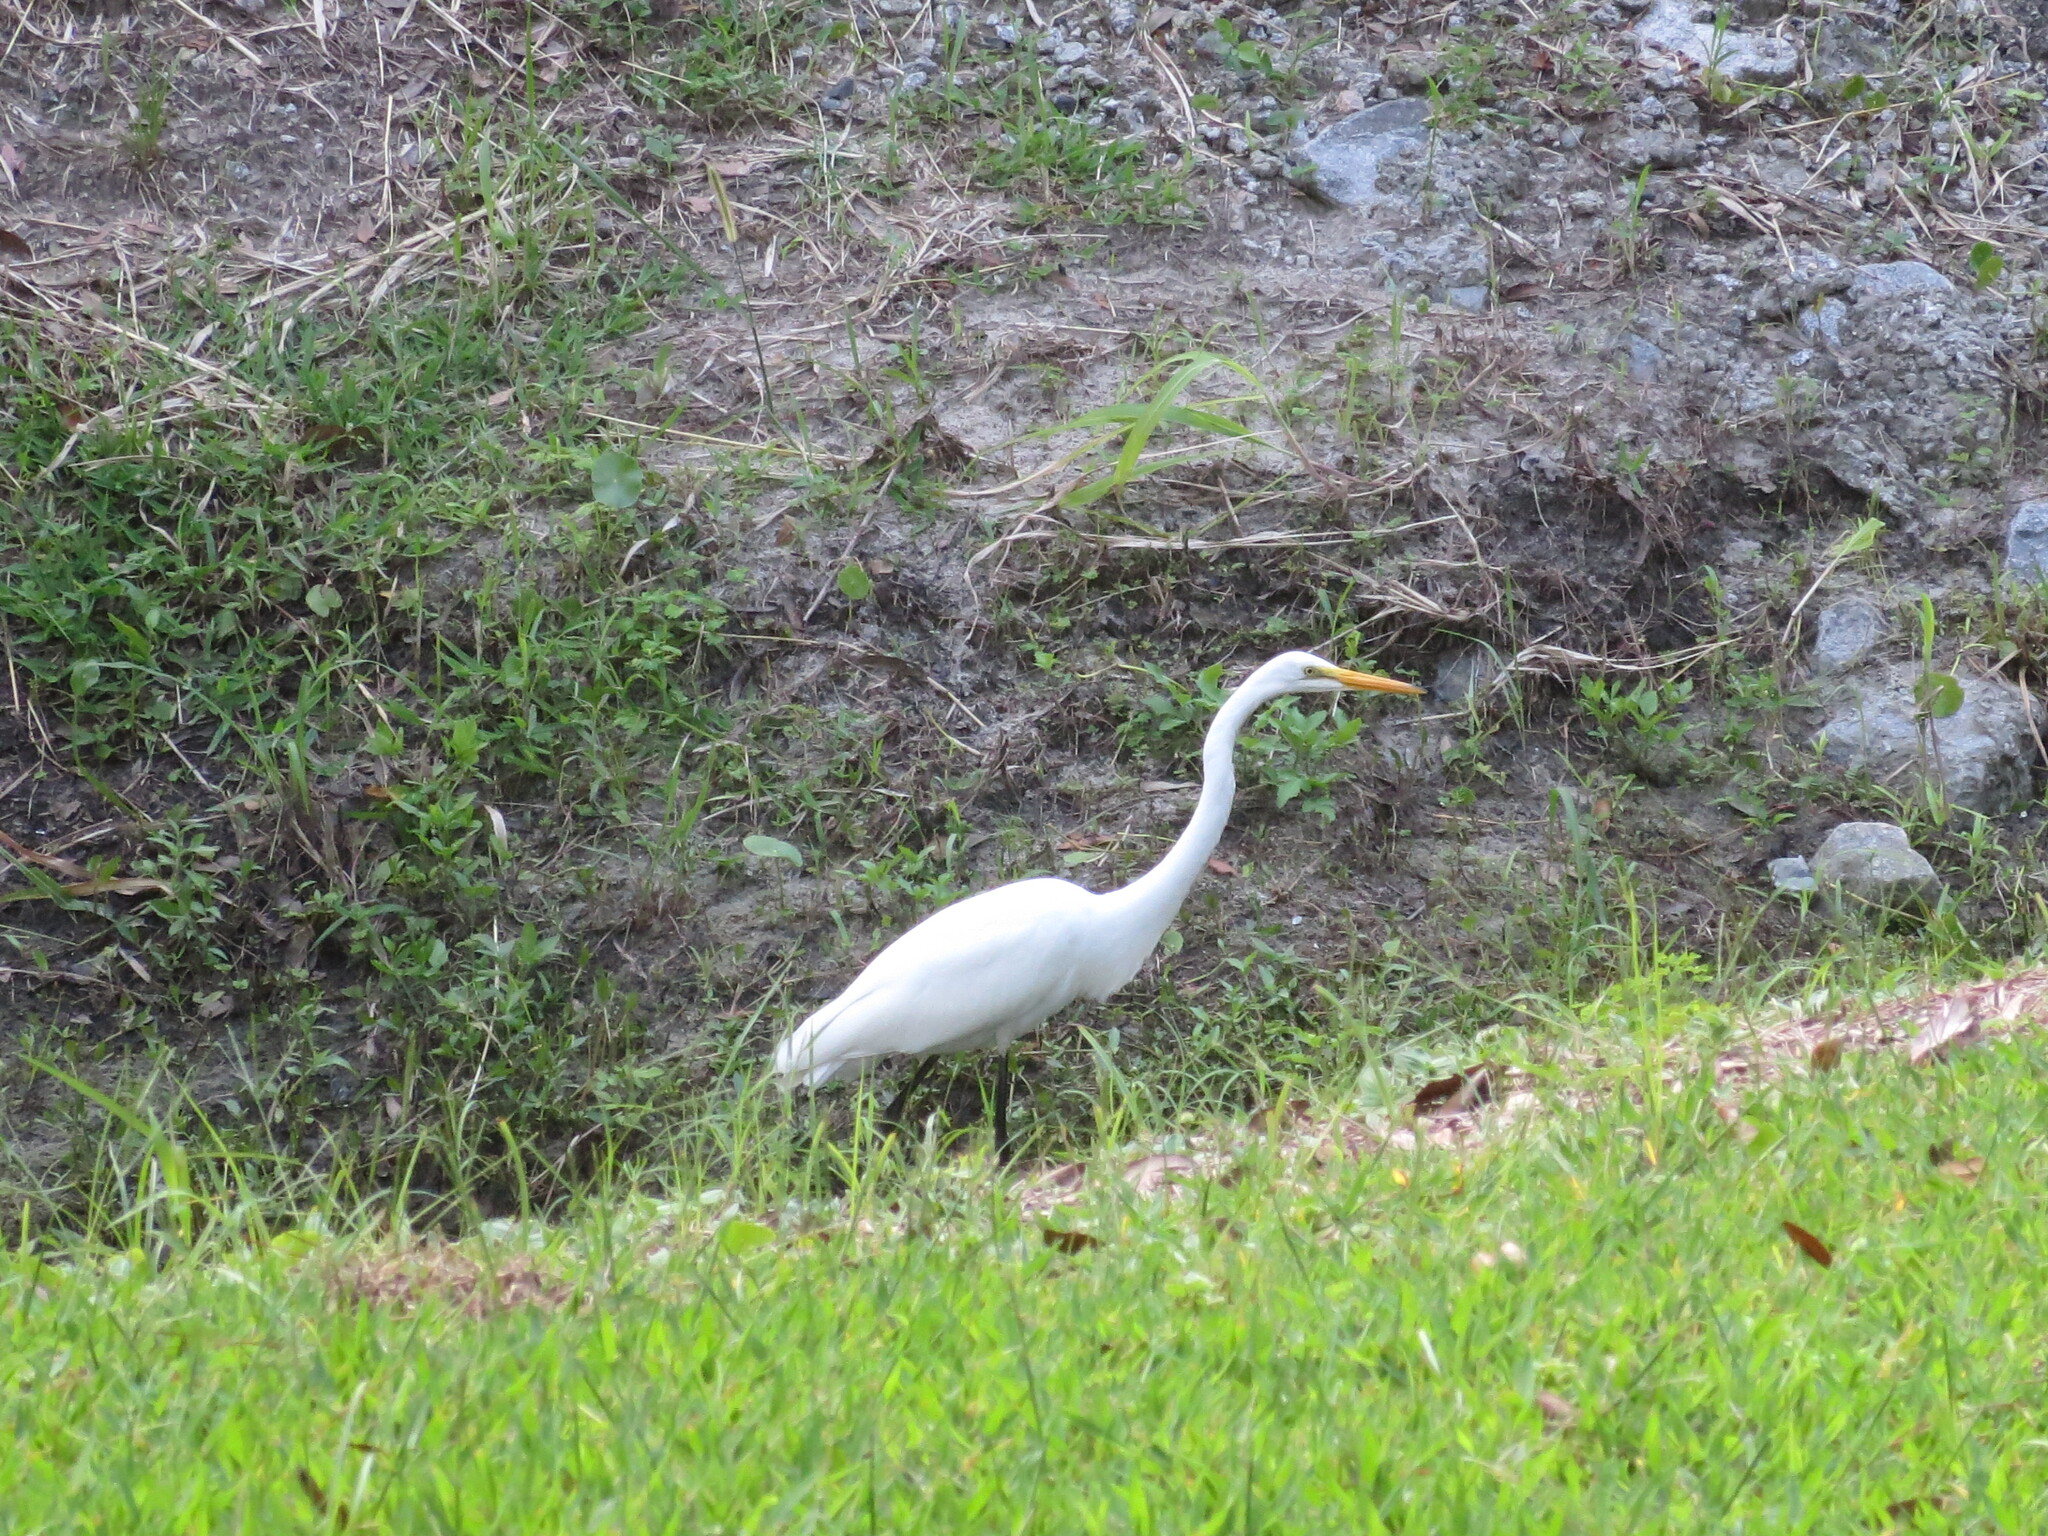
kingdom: Animalia
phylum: Chordata
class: Aves
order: Pelecaniformes
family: Ardeidae
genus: Ardea
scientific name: Ardea alba
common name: Great egret
